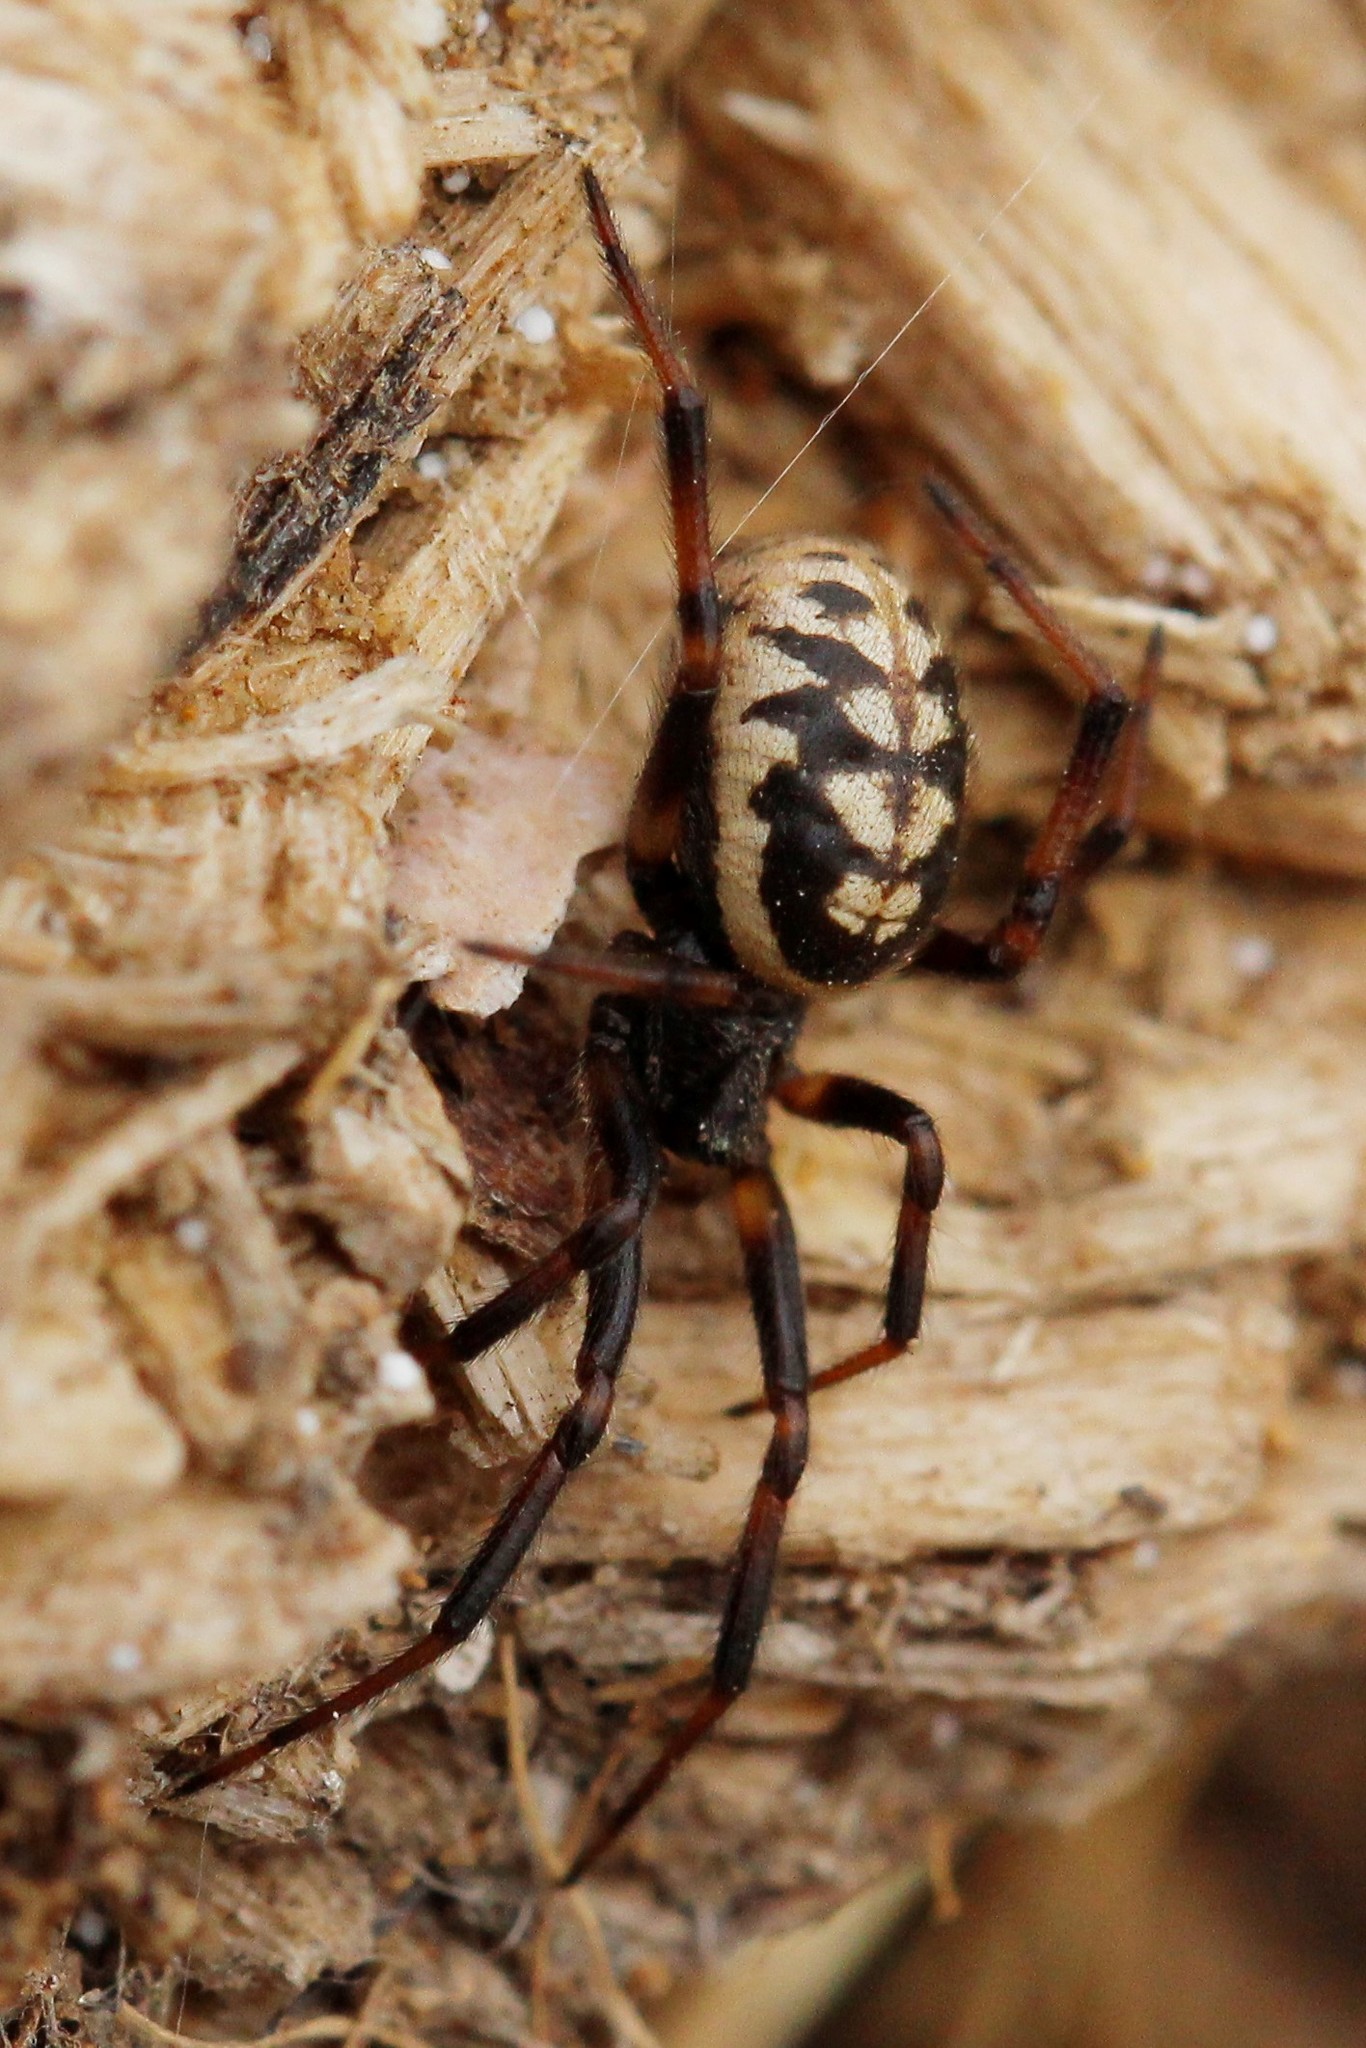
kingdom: Animalia
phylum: Arthropoda
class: Arachnida
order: Araneae
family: Theridiidae
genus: Steatoda
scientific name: Steatoda albomaculata
